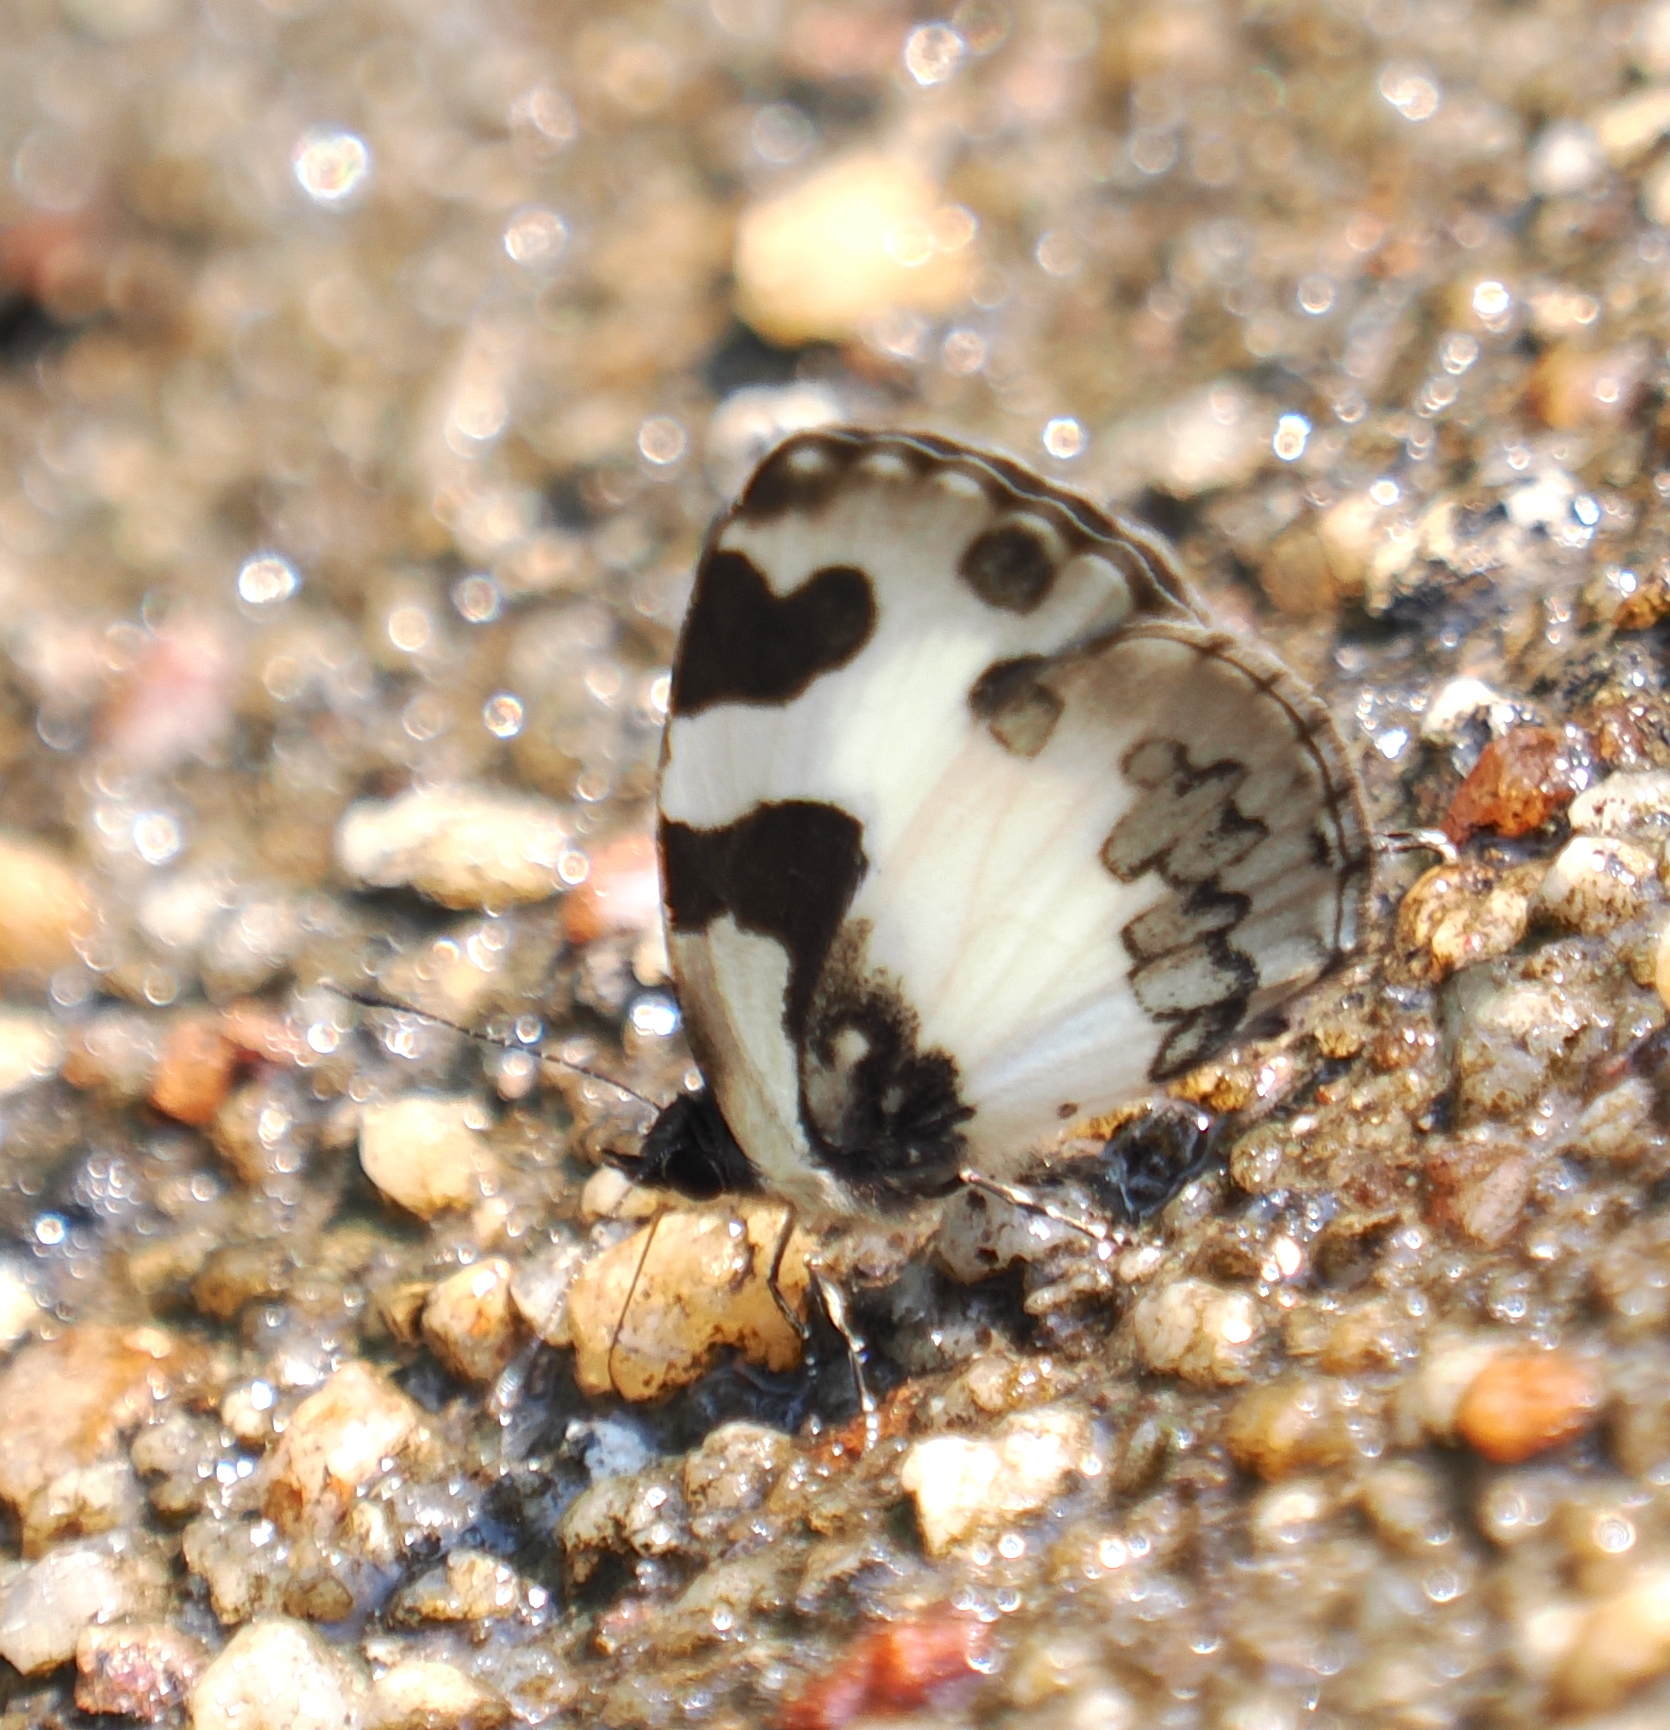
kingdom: Animalia
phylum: Arthropoda
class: Insecta
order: Lepidoptera
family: Lycaenidae
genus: Caleta
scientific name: Caleta elna
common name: Elbowed pierrot
